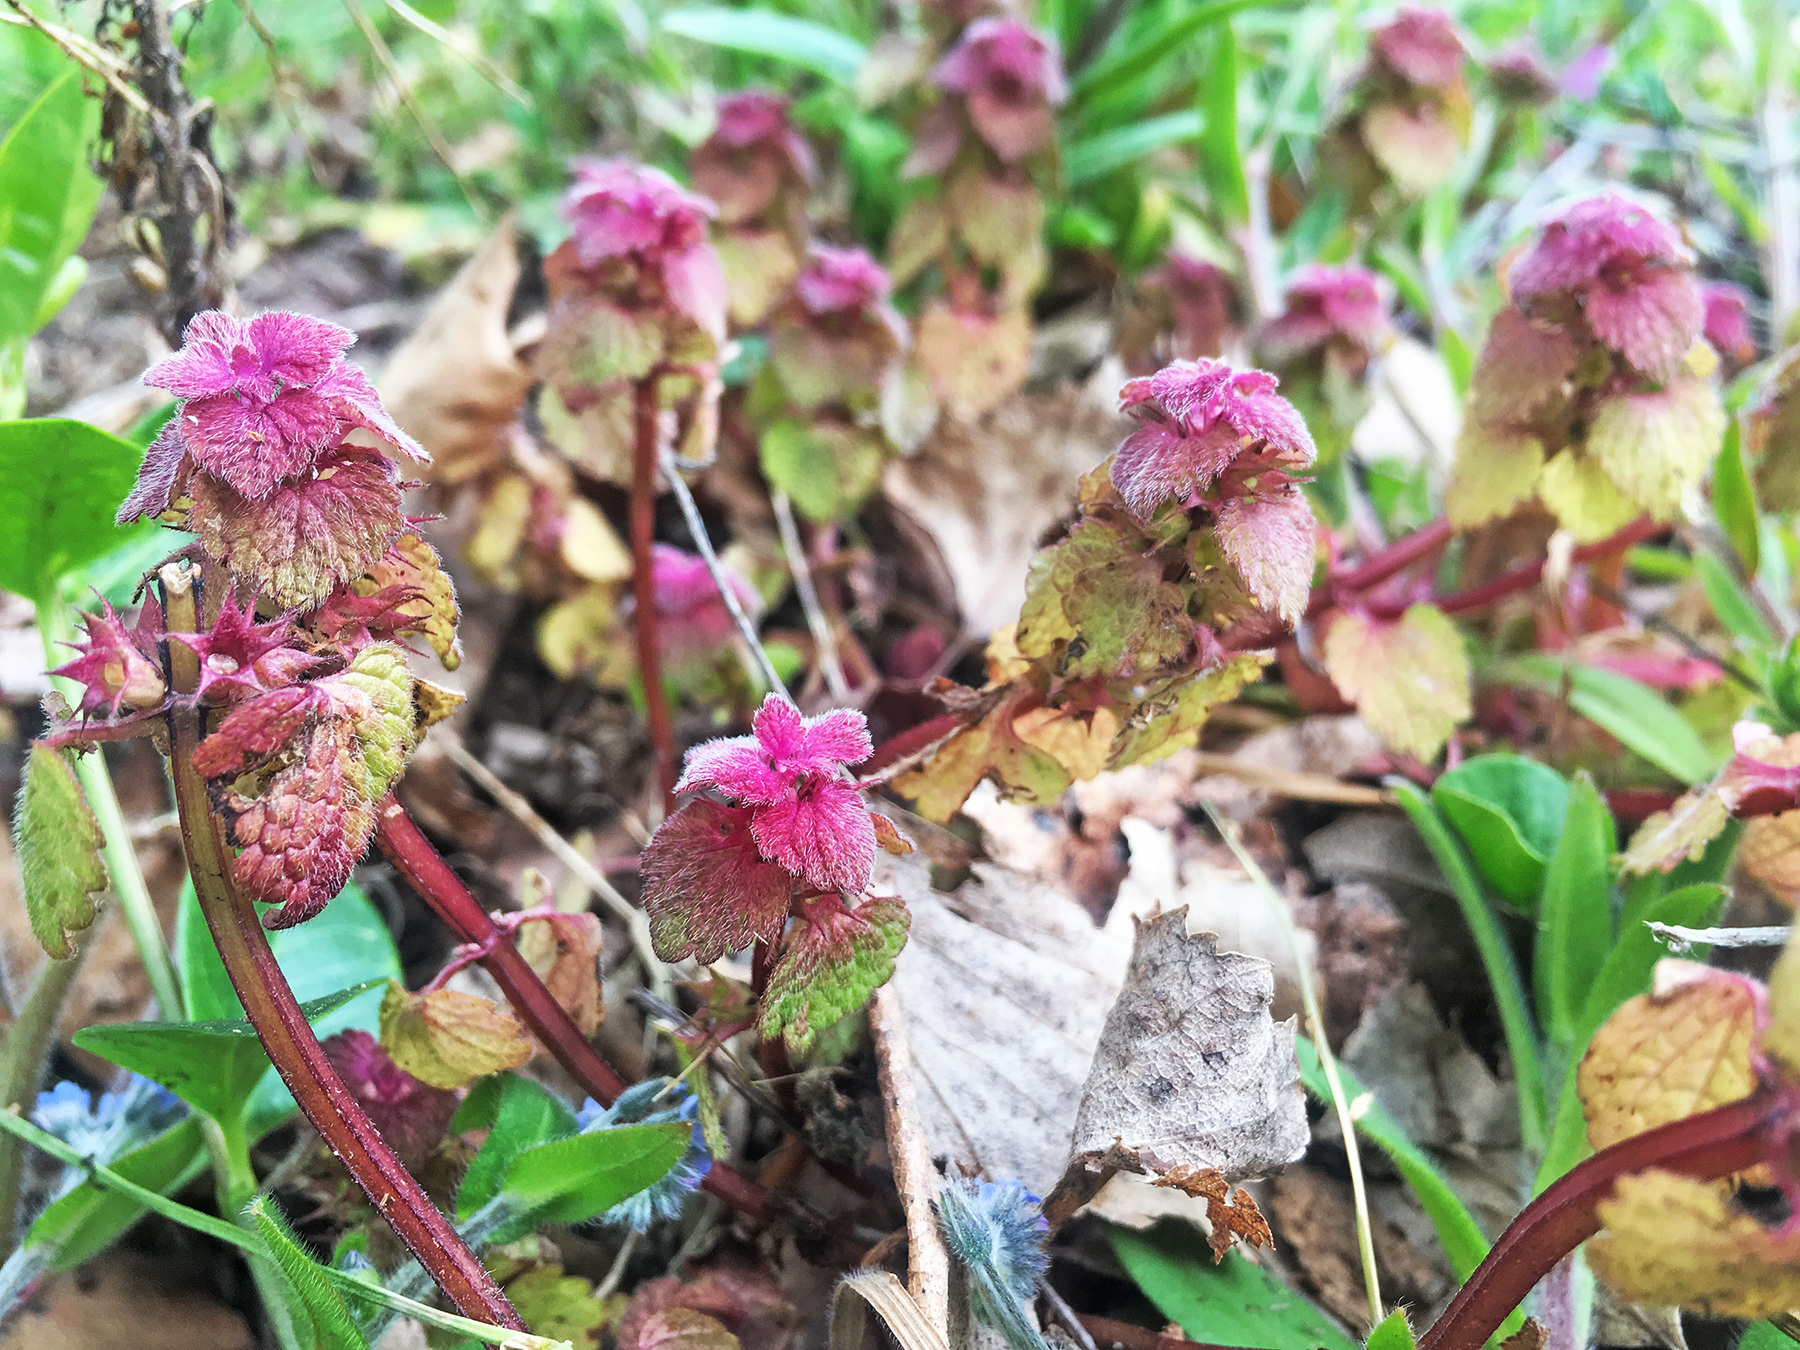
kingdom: Plantae
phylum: Tracheophyta
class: Magnoliopsida
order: Lamiales
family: Lamiaceae
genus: Lamium
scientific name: Lamium purpureum
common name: Red dead-nettle
